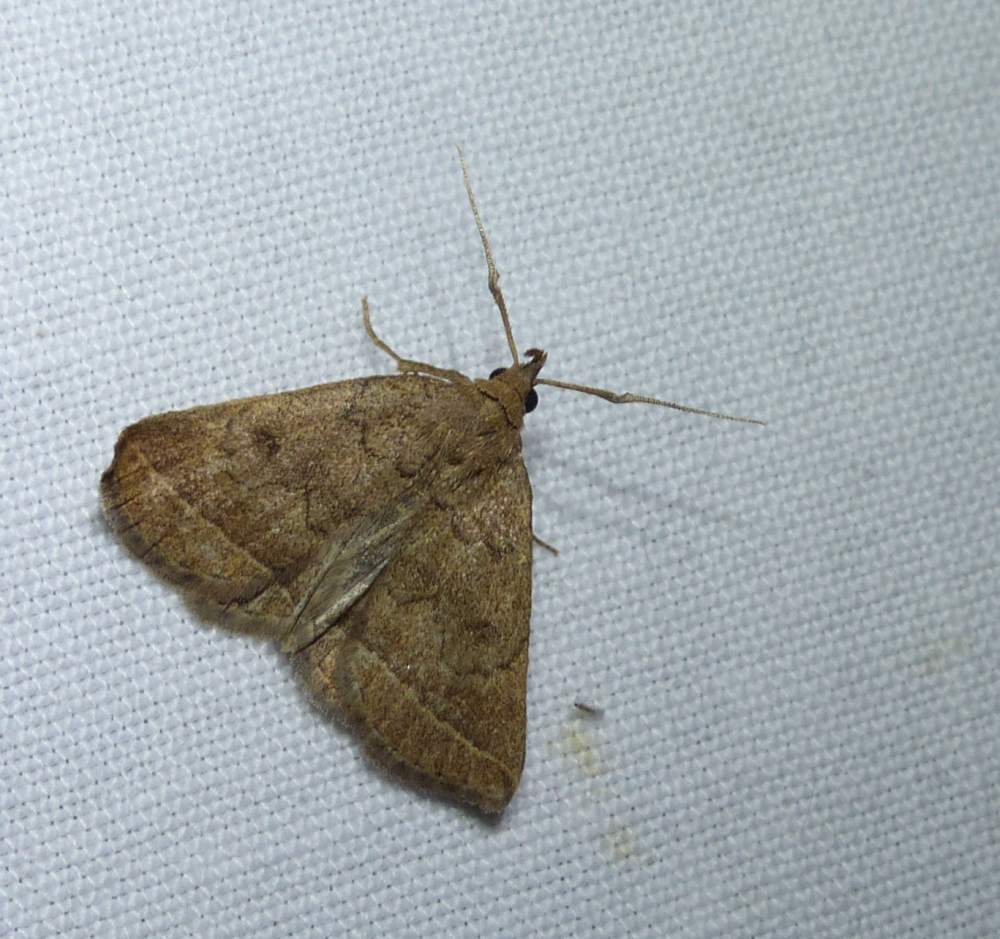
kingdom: Animalia
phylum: Arthropoda
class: Insecta
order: Lepidoptera
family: Erebidae
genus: Zanclognatha
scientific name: Zanclognatha jacchusalis
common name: Yellowish zanclognatha
